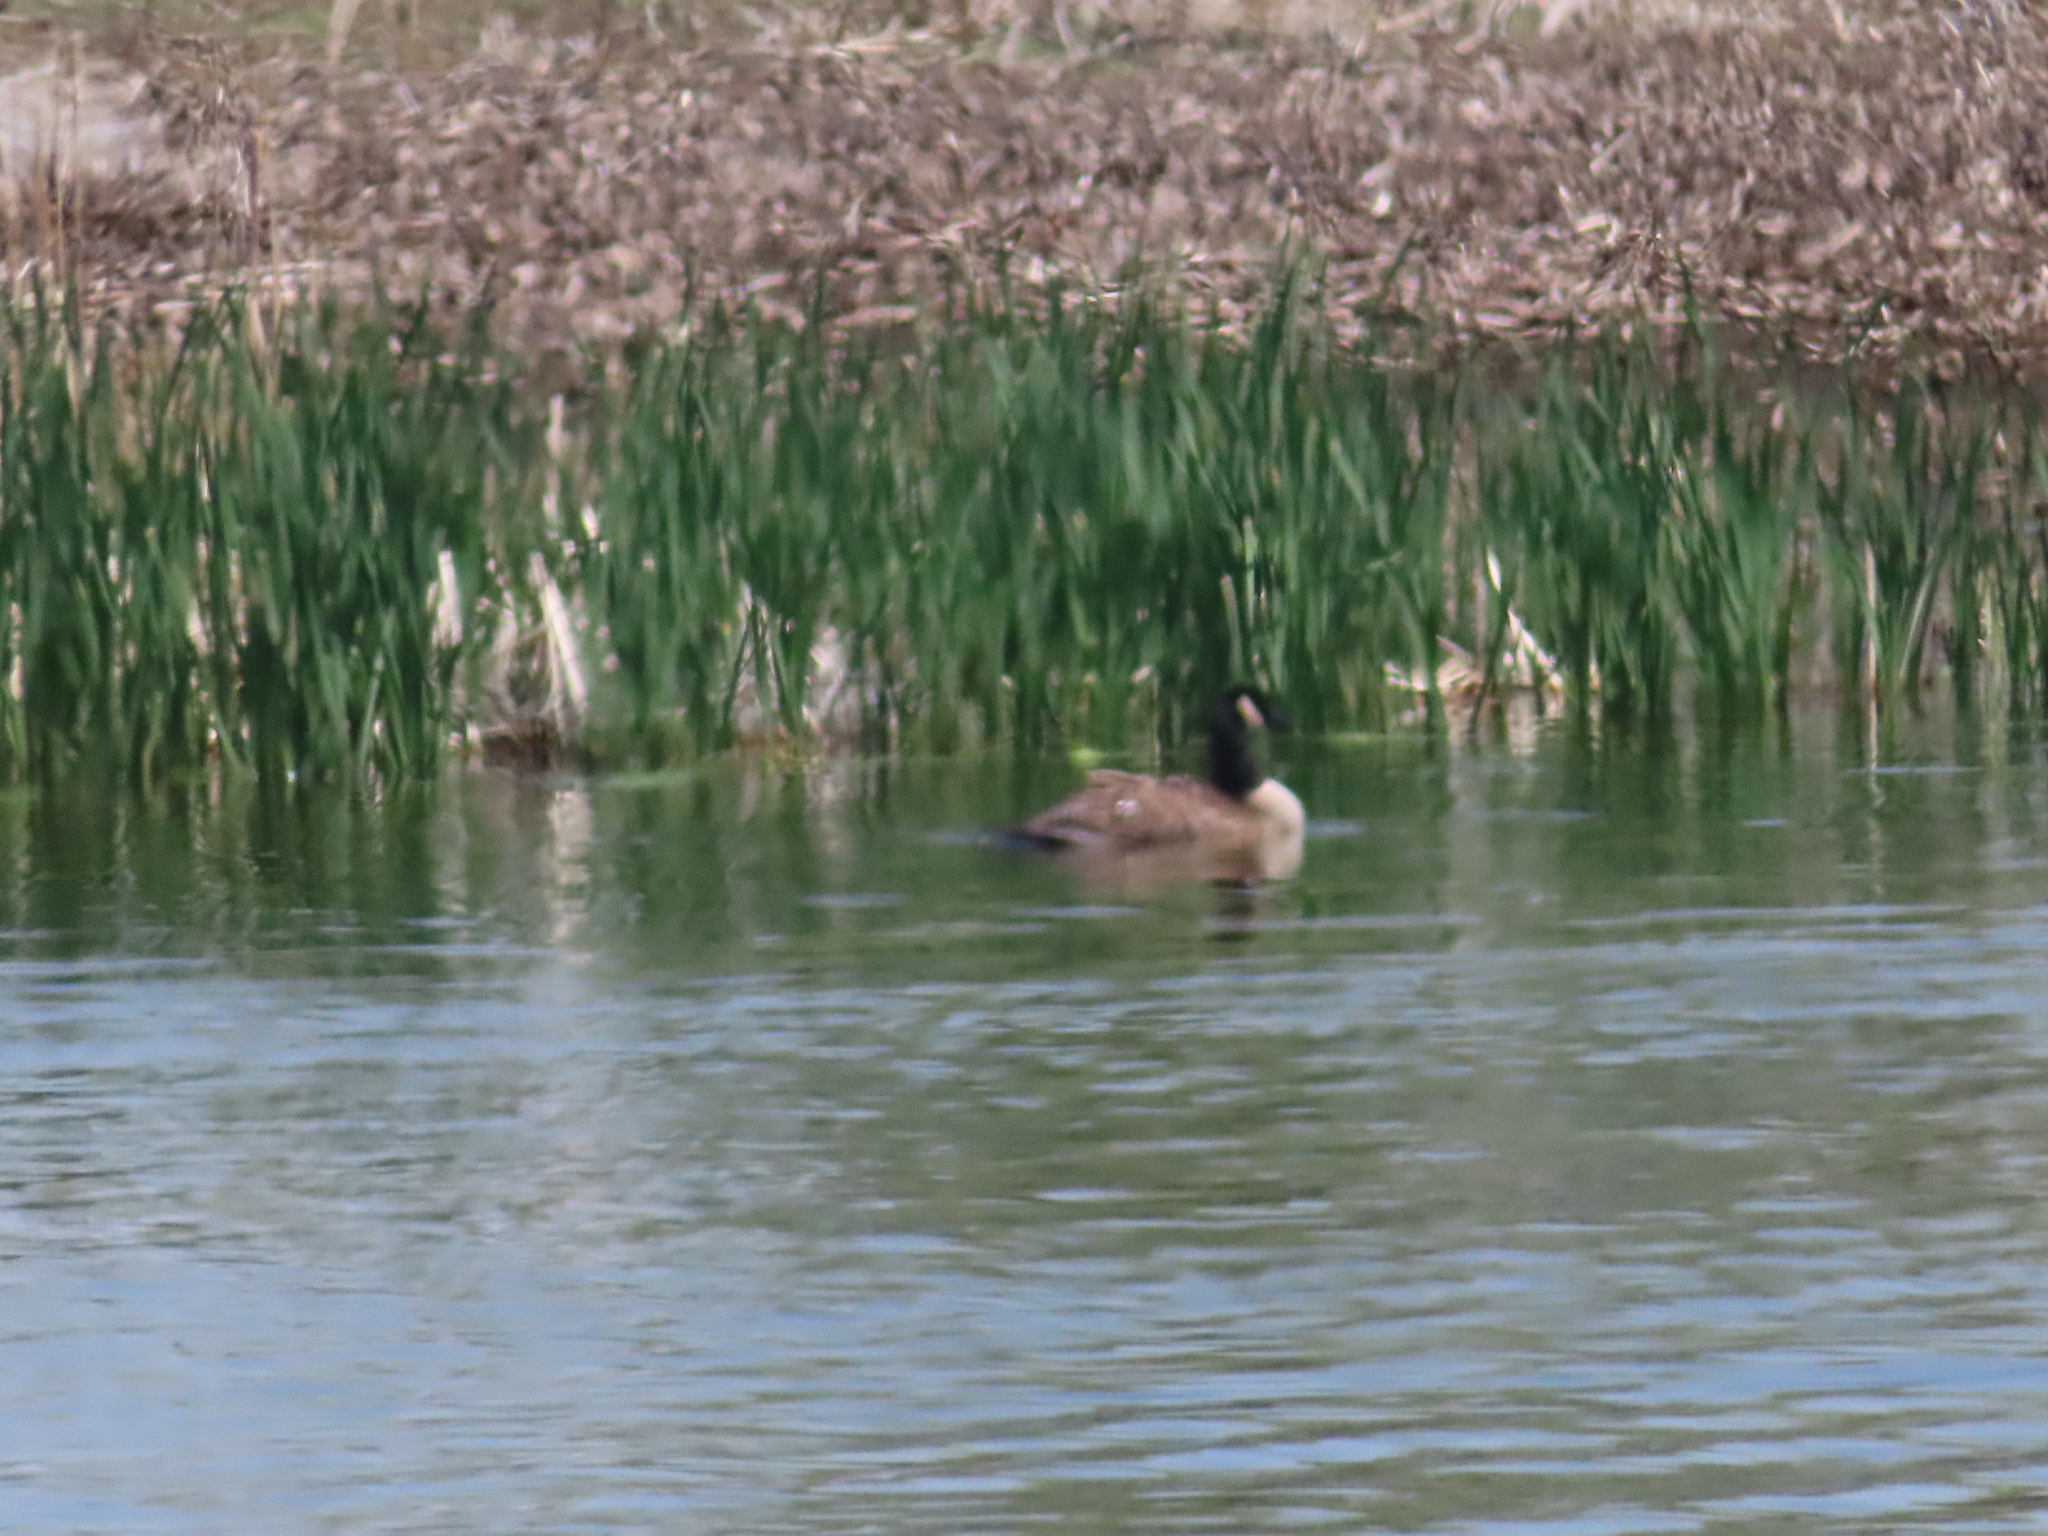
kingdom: Animalia
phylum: Chordata
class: Aves
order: Anseriformes
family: Anatidae
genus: Branta
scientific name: Branta canadensis
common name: Canada goose
